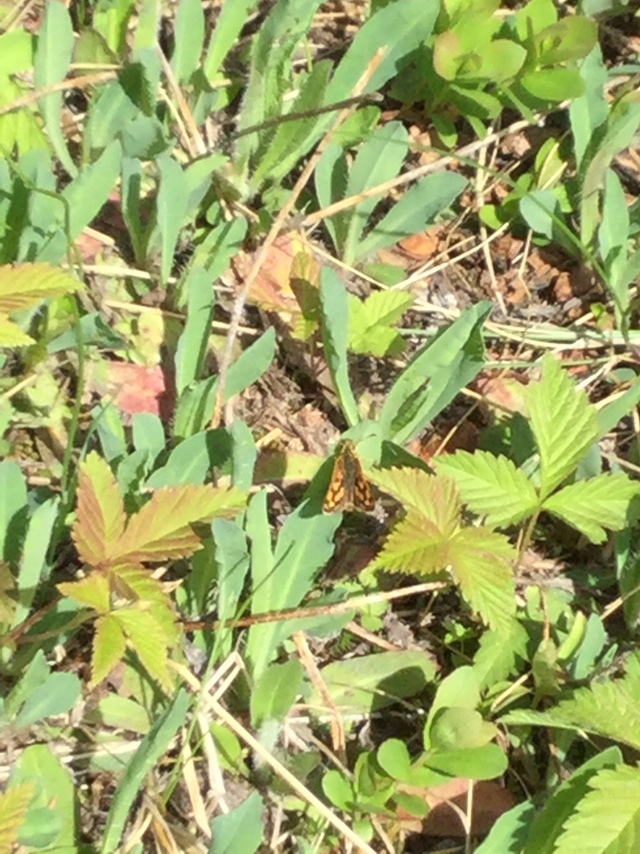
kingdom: Animalia
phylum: Arthropoda
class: Insecta
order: Lepidoptera
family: Hesperiidae
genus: Carterocephalus
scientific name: Carterocephalus skada
